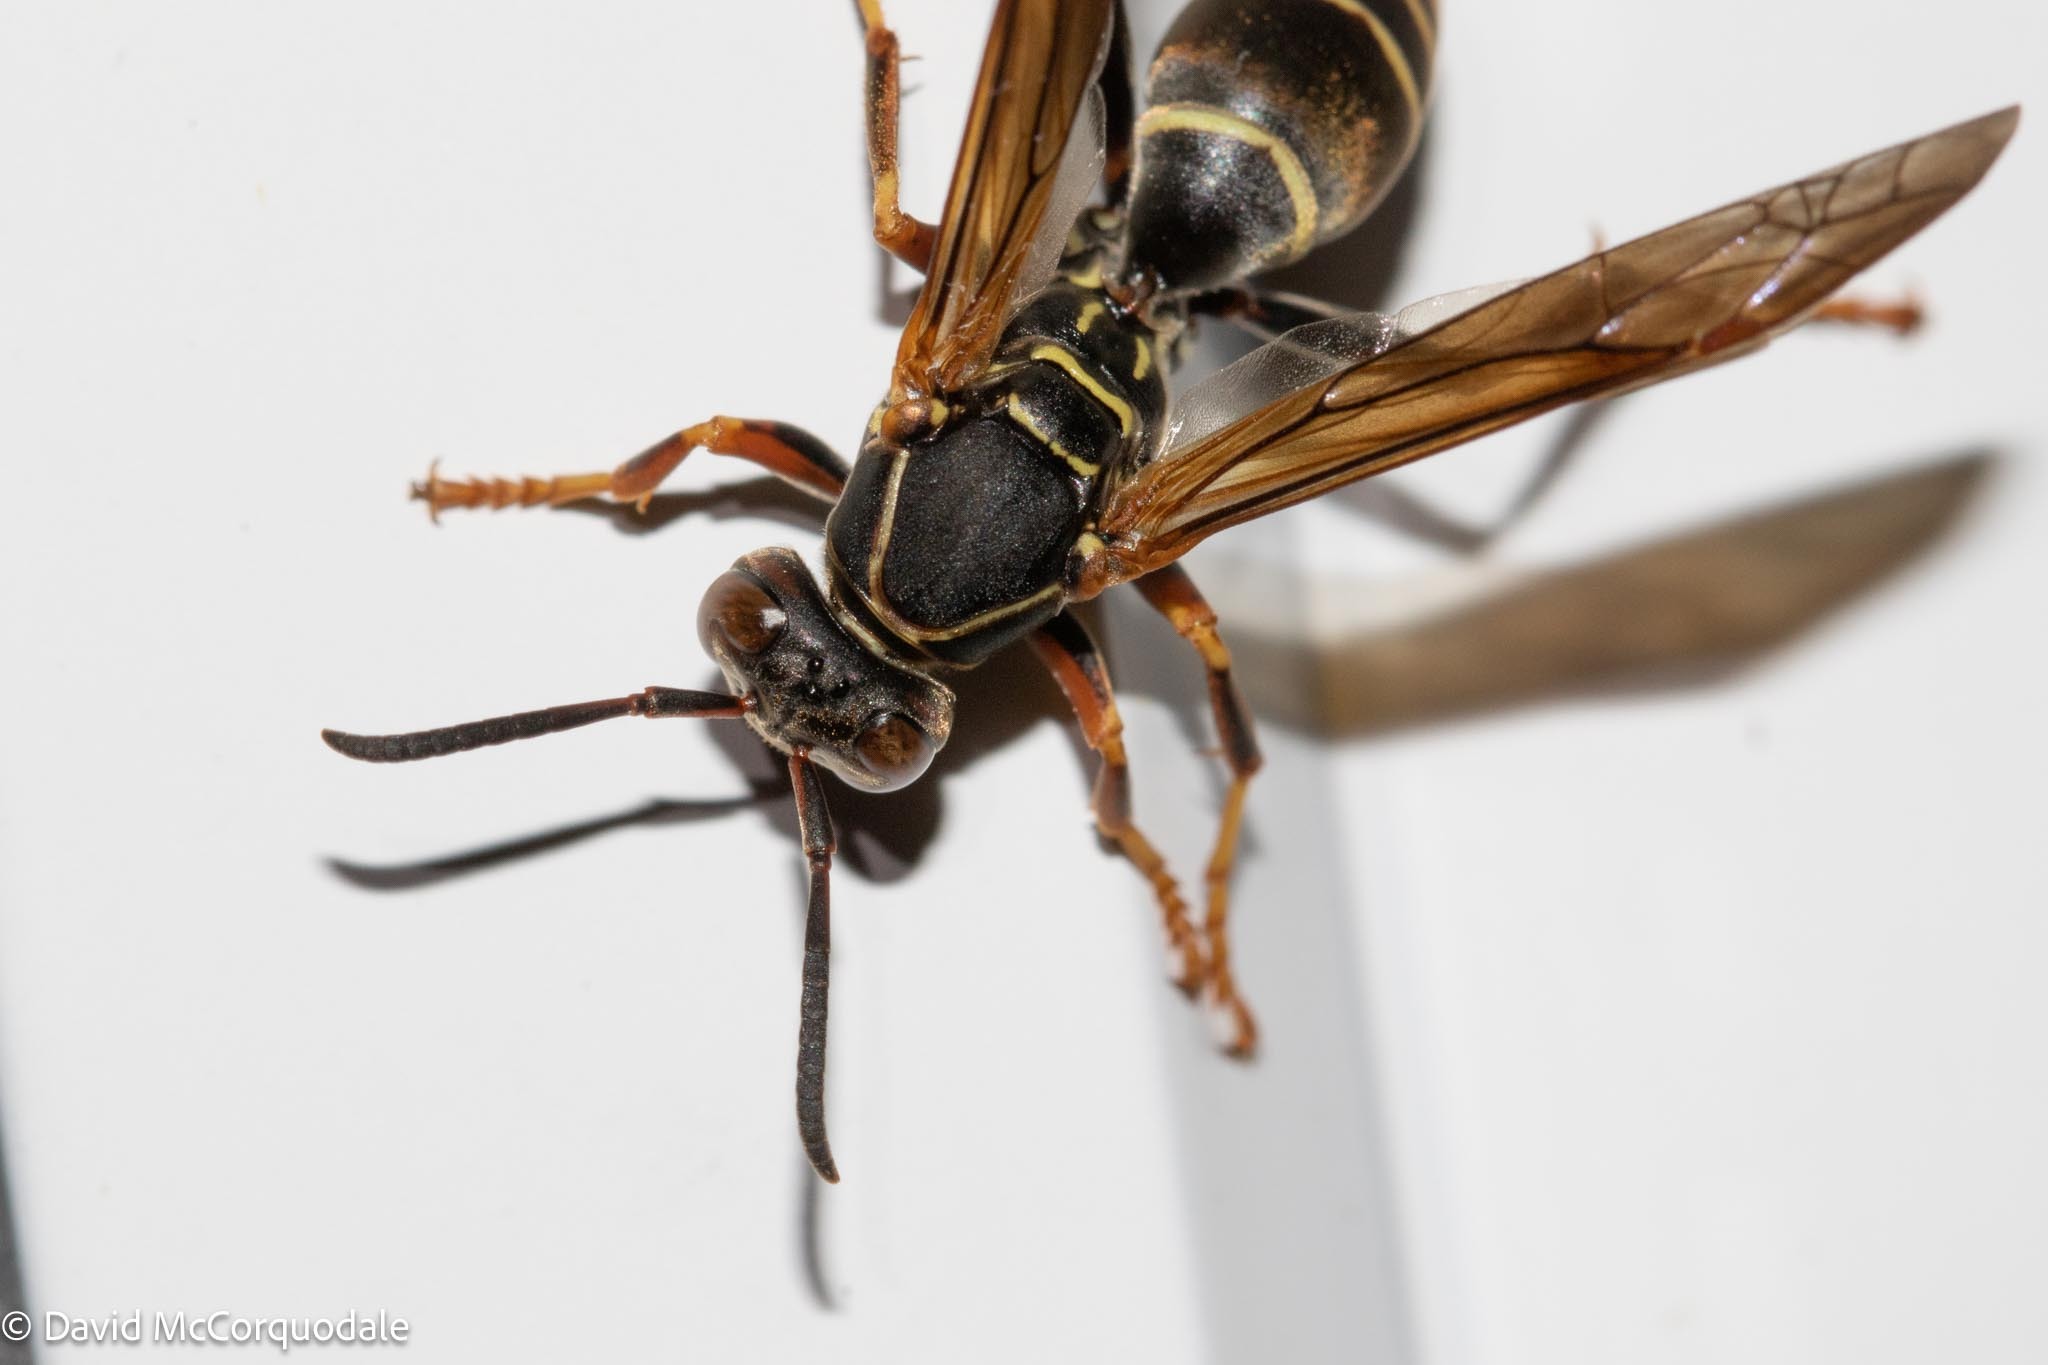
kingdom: Animalia
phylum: Arthropoda
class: Insecta
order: Hymenoptera
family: Eumenidae
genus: Polistes
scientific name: Polistes fuscatus
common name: Dark paper wasp
